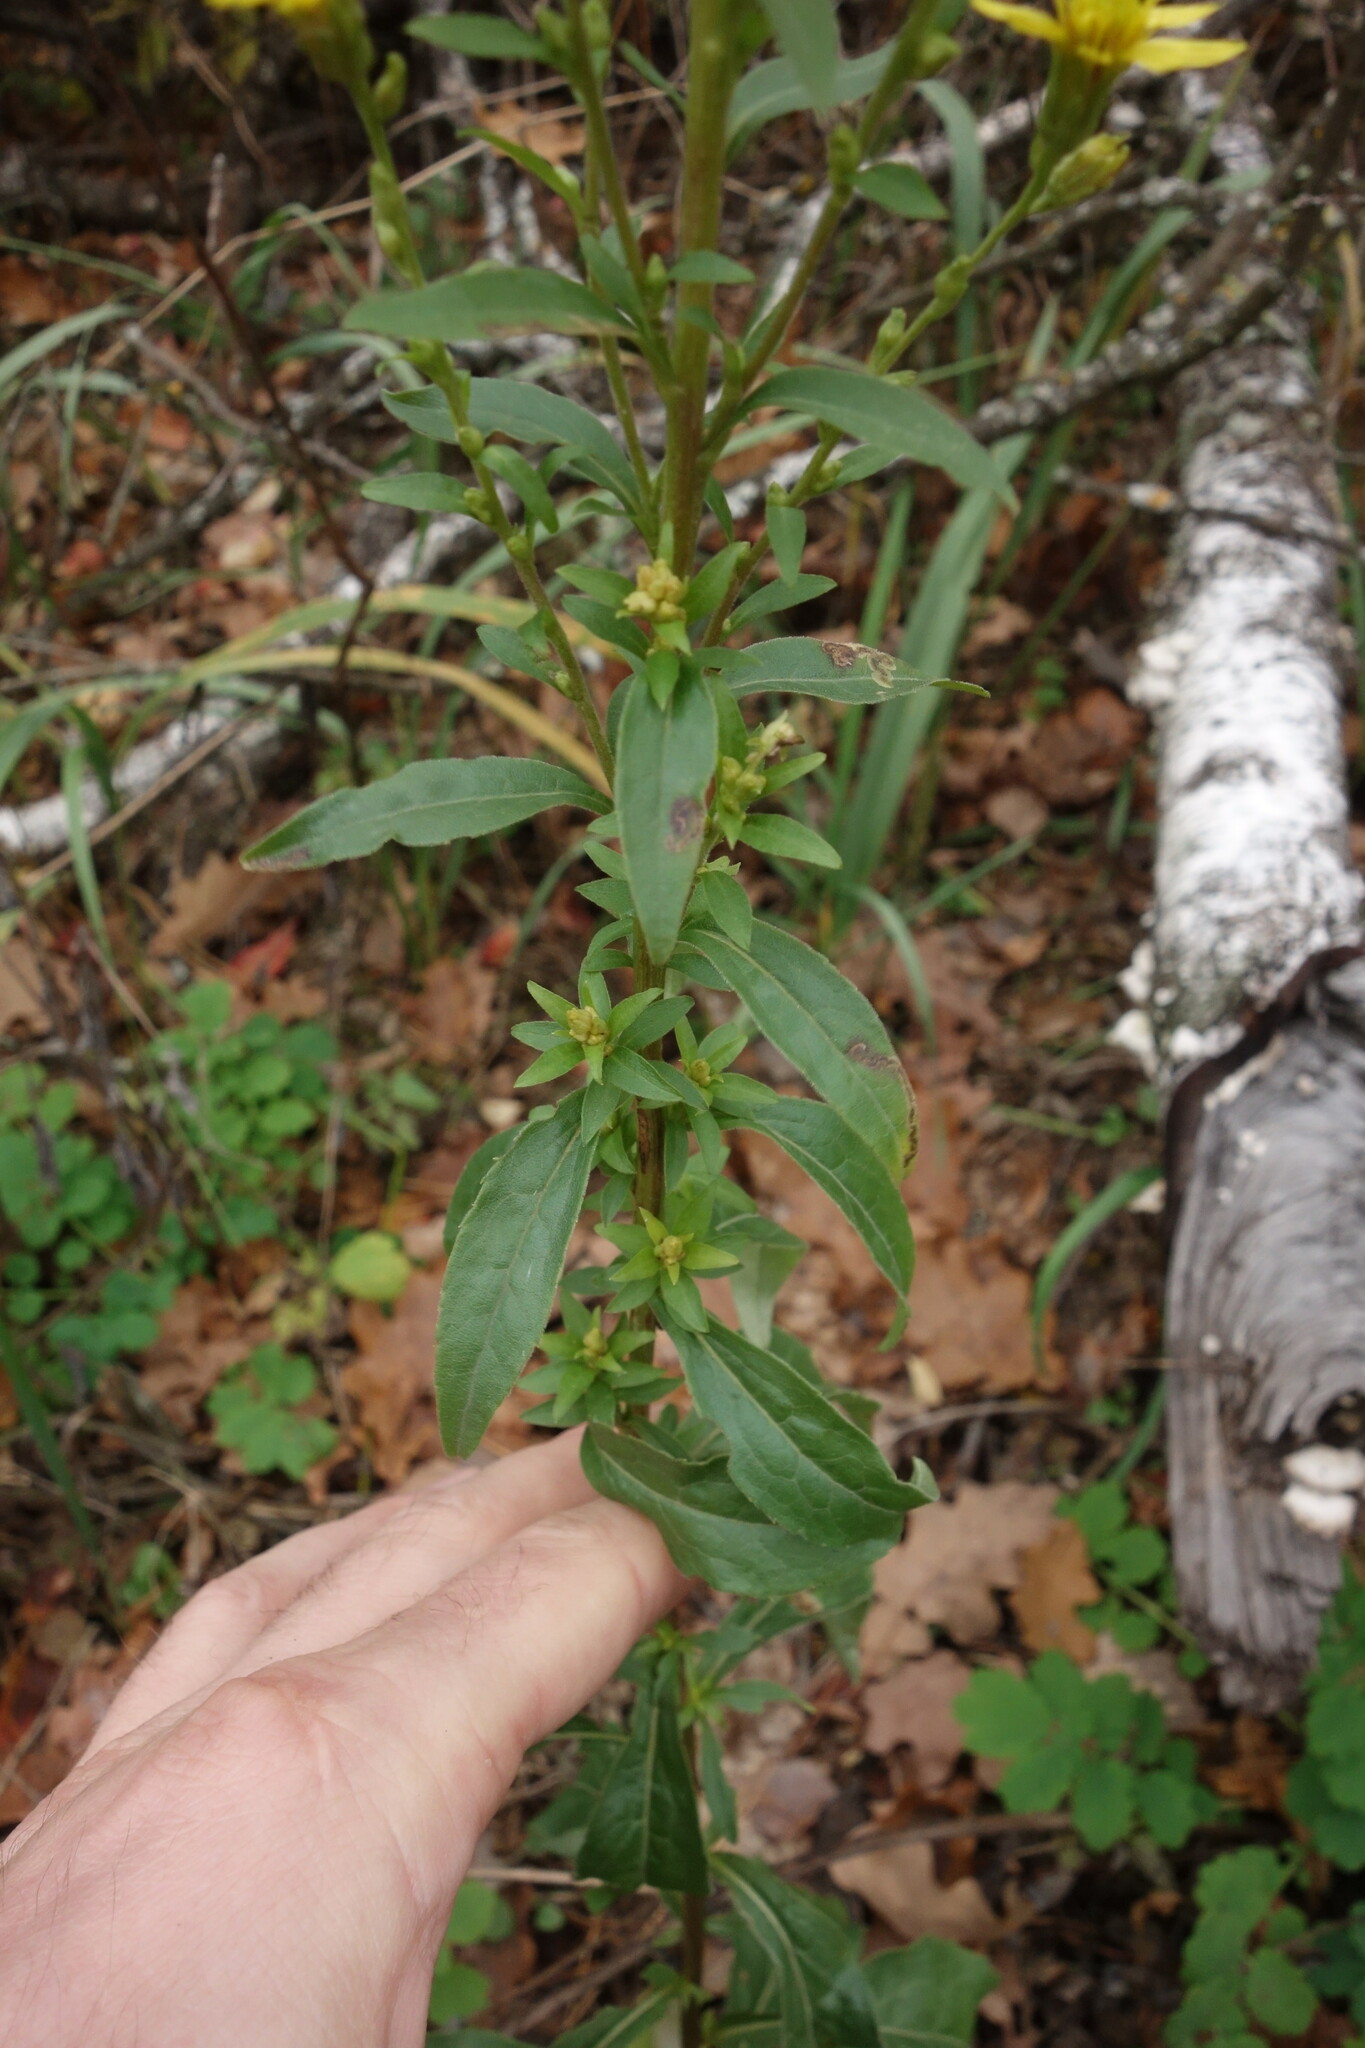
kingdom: Plantae
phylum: Tracheophyta
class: Magnoliopsida
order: Asterales
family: Asteraceae
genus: Solidago
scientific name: Solidago virgaurea
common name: Goldenrod
